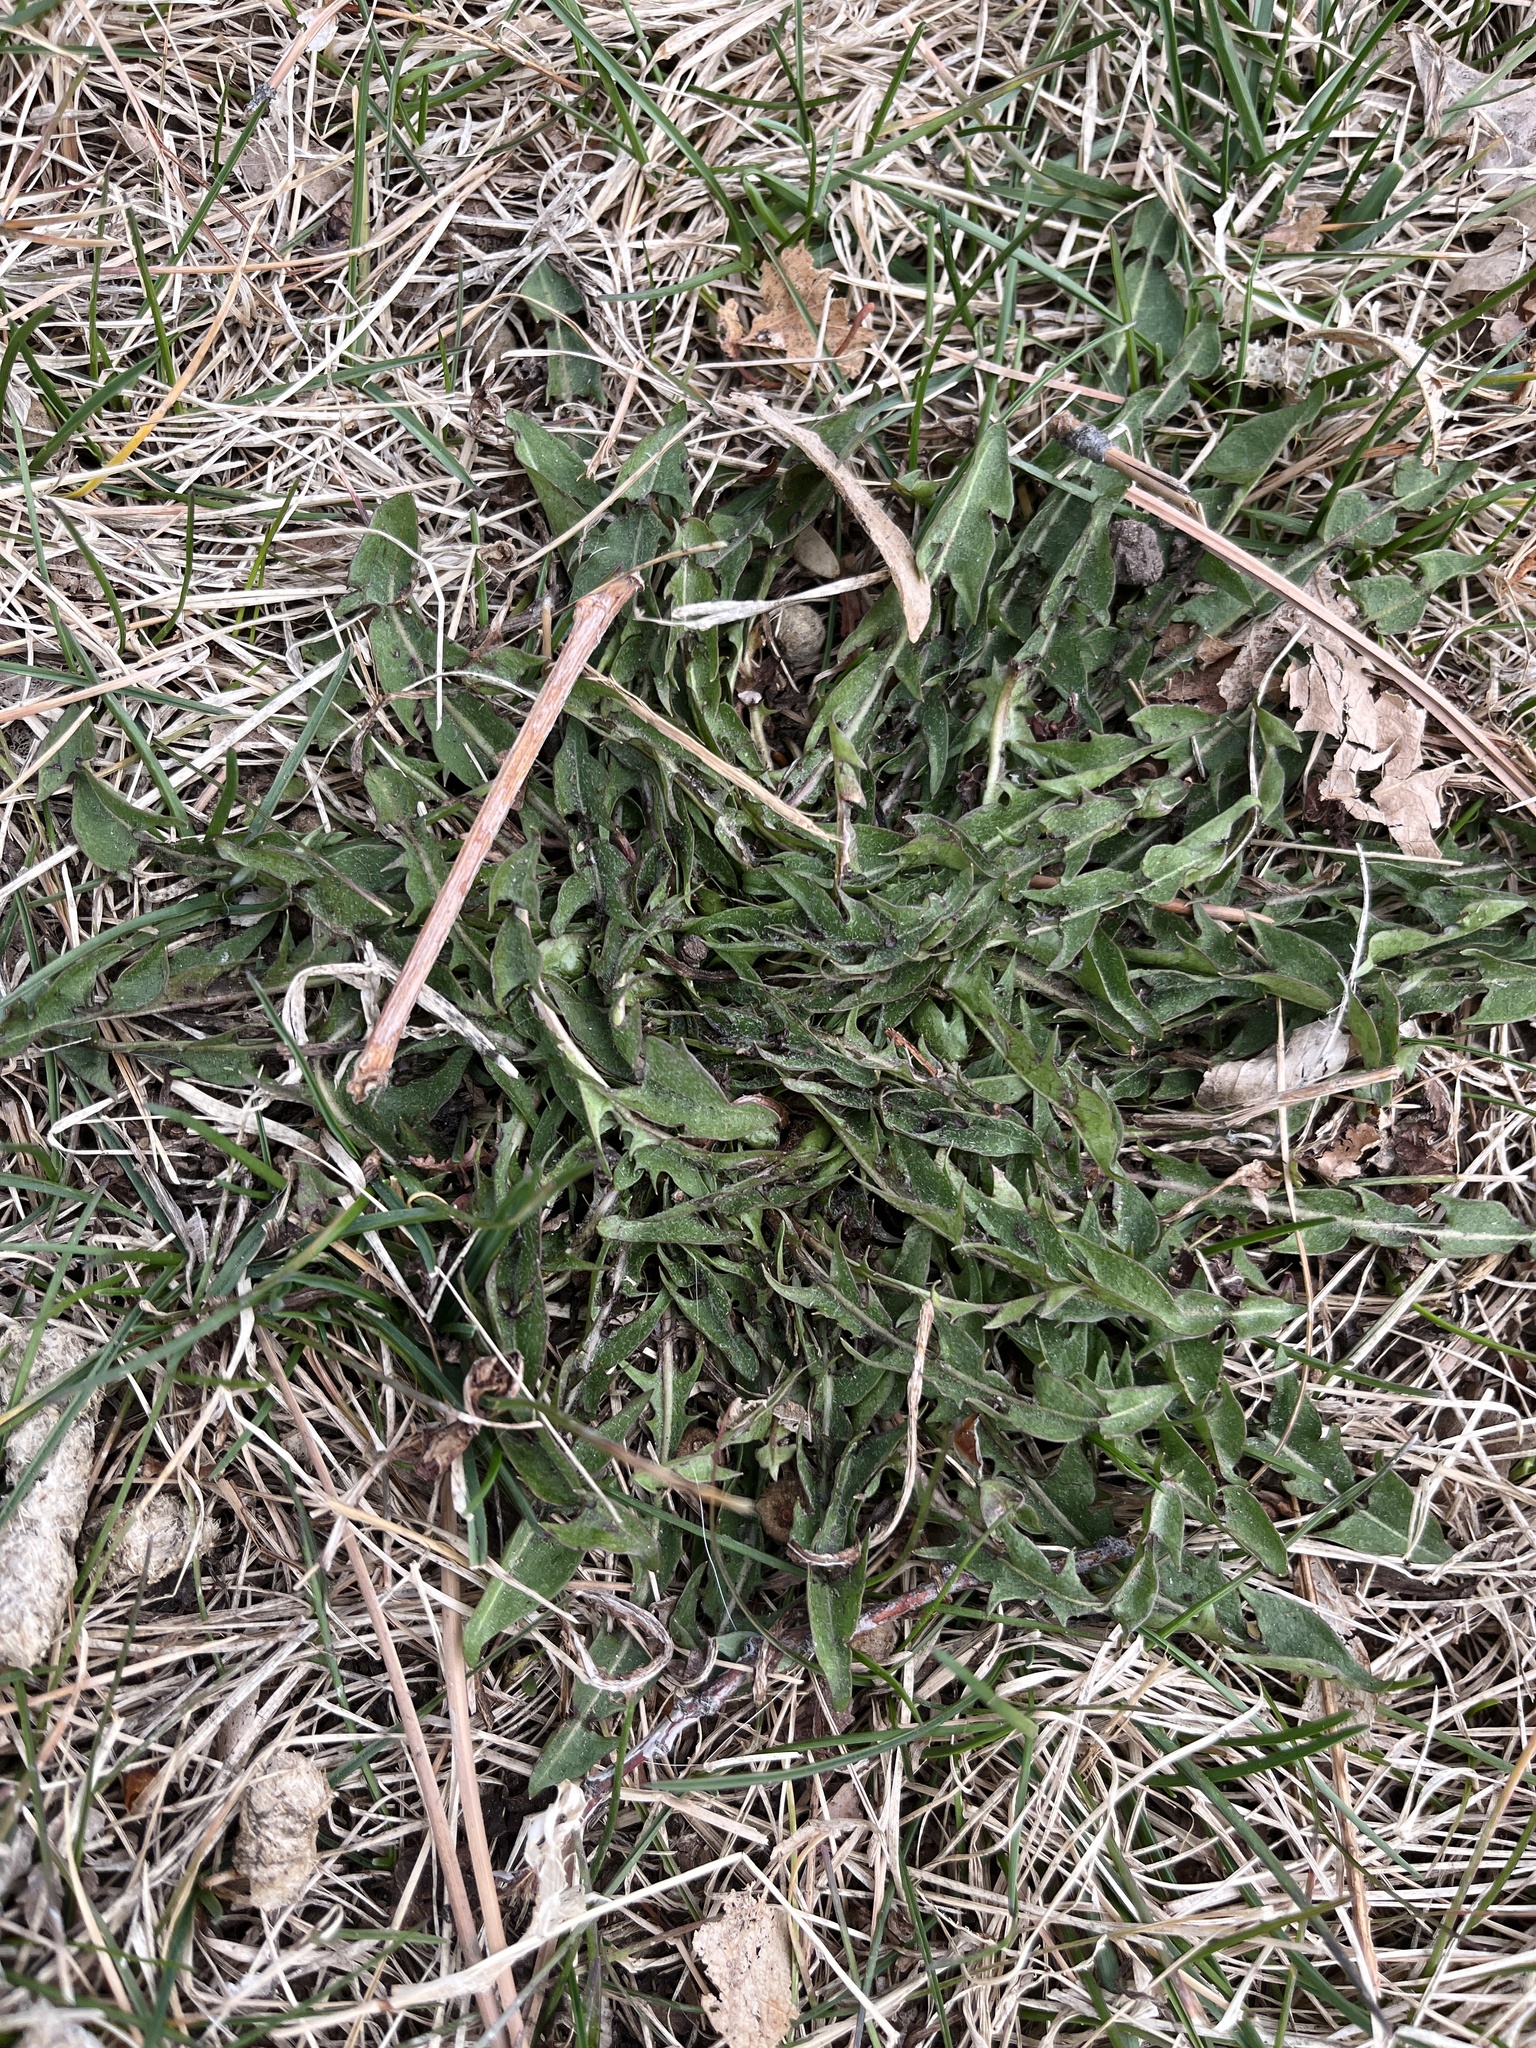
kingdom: Plantae
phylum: Tracheophyta
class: Magnoliopsida
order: Asterales
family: Asteraceae
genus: Taraxacum
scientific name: Taraxacum officinale
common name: Common dandelion
